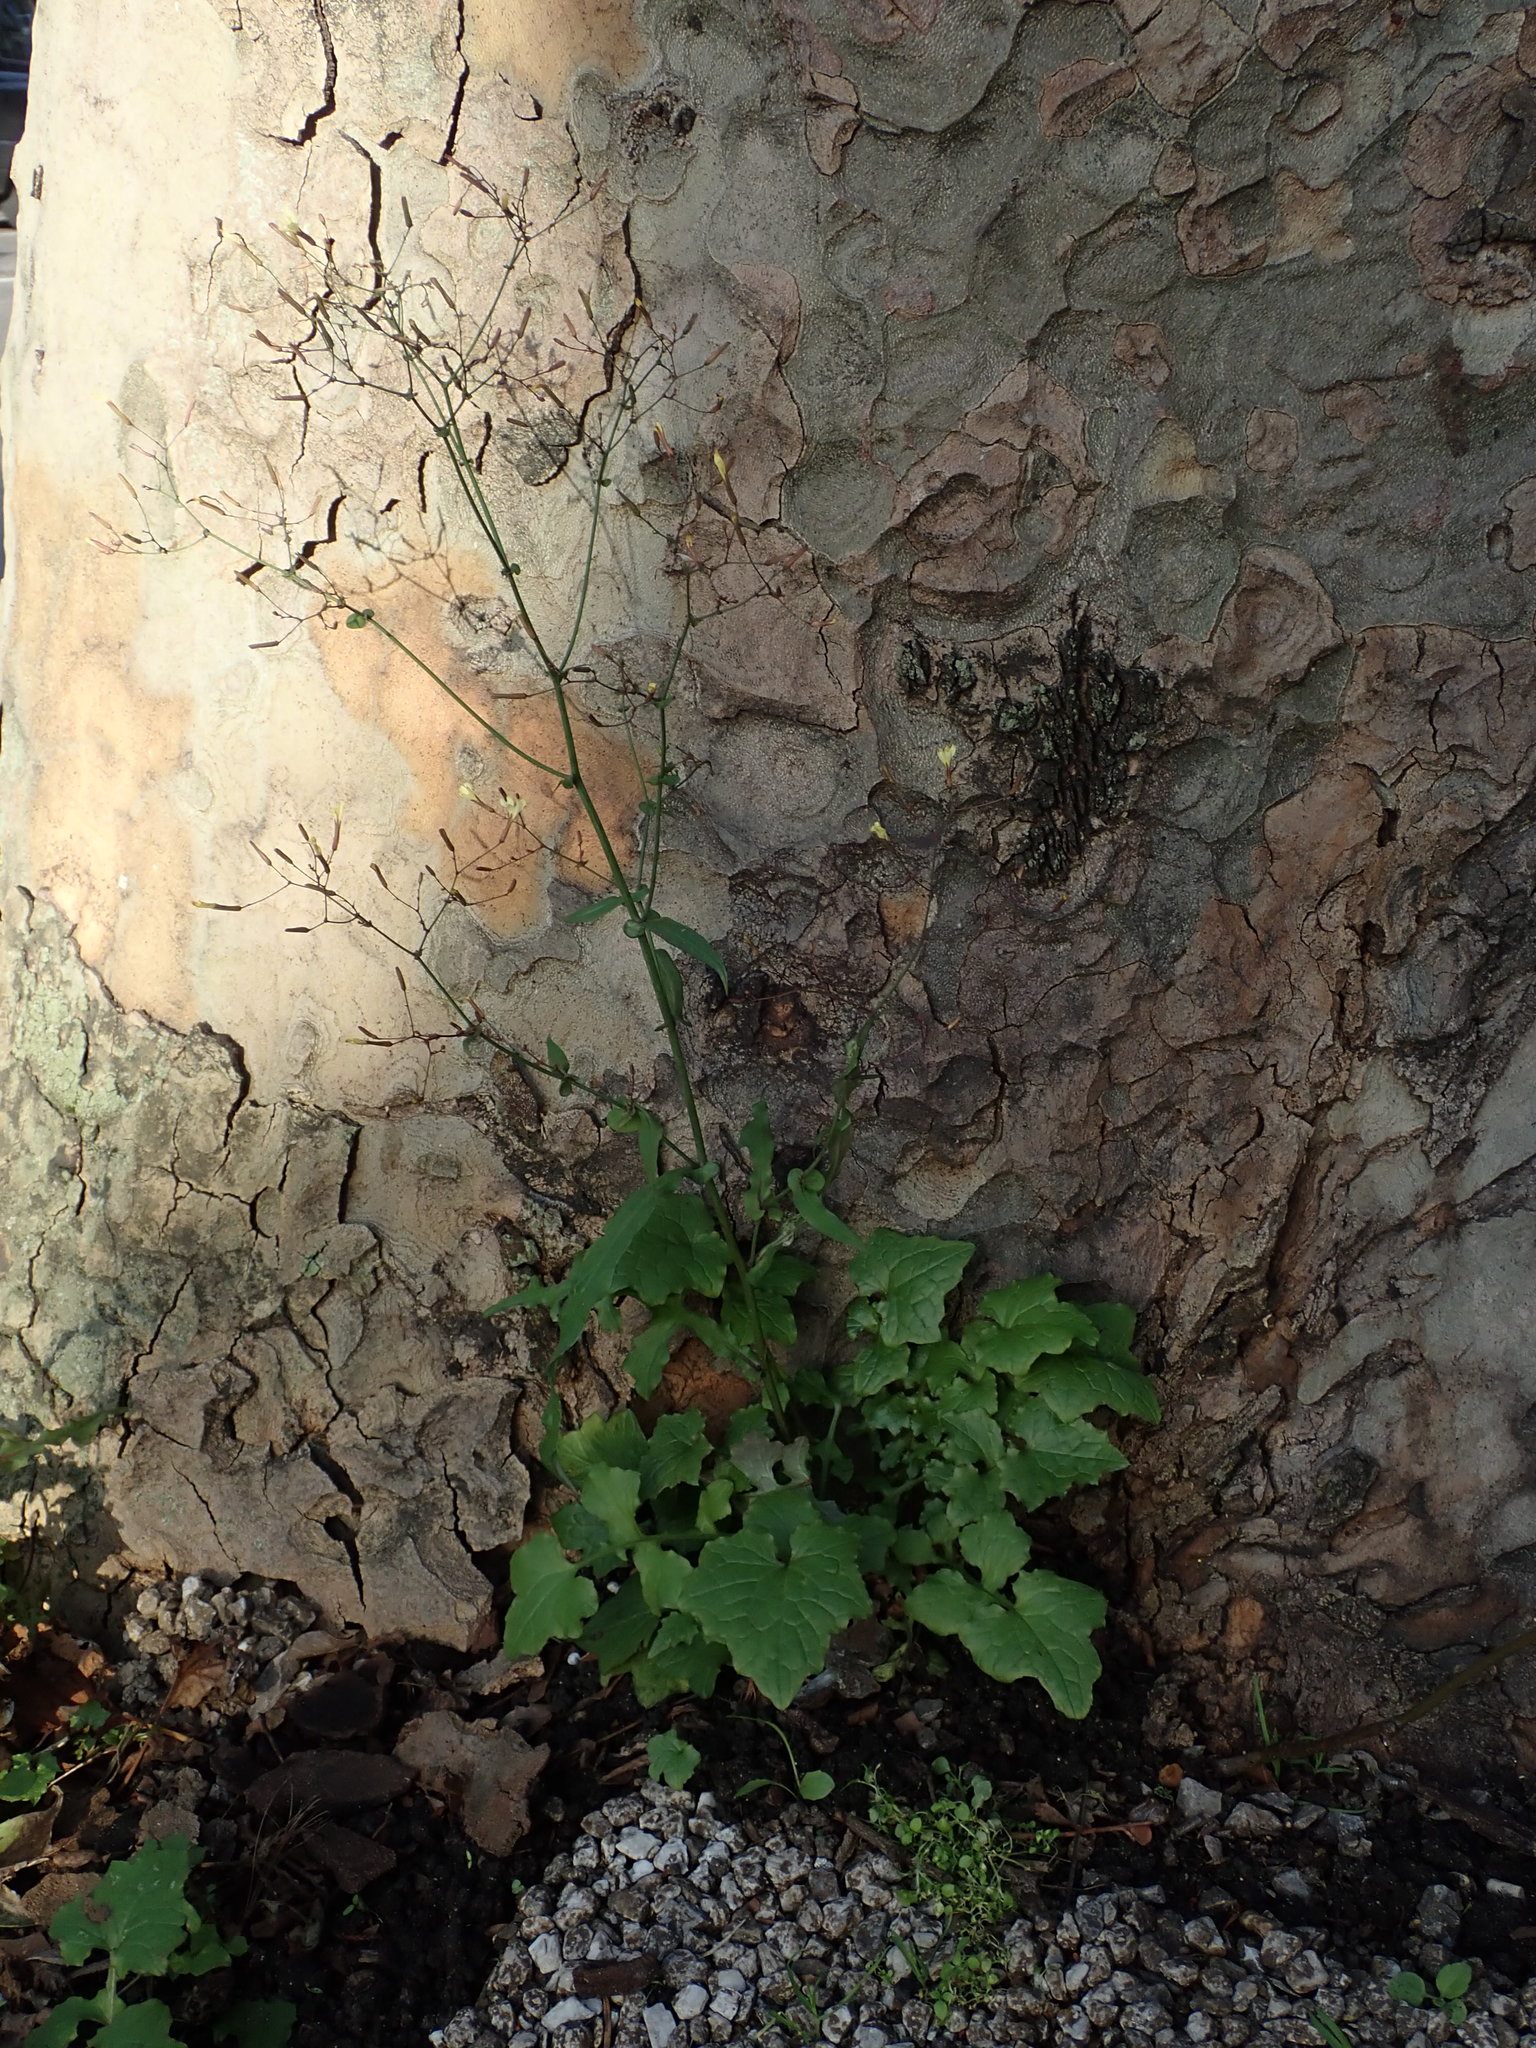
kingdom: Plantae
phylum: Tracheophyta
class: Magnoliopsida
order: Asterales
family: Asteraceae
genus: Mycelis
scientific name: Mycelis muralis
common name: Wall lettuce
